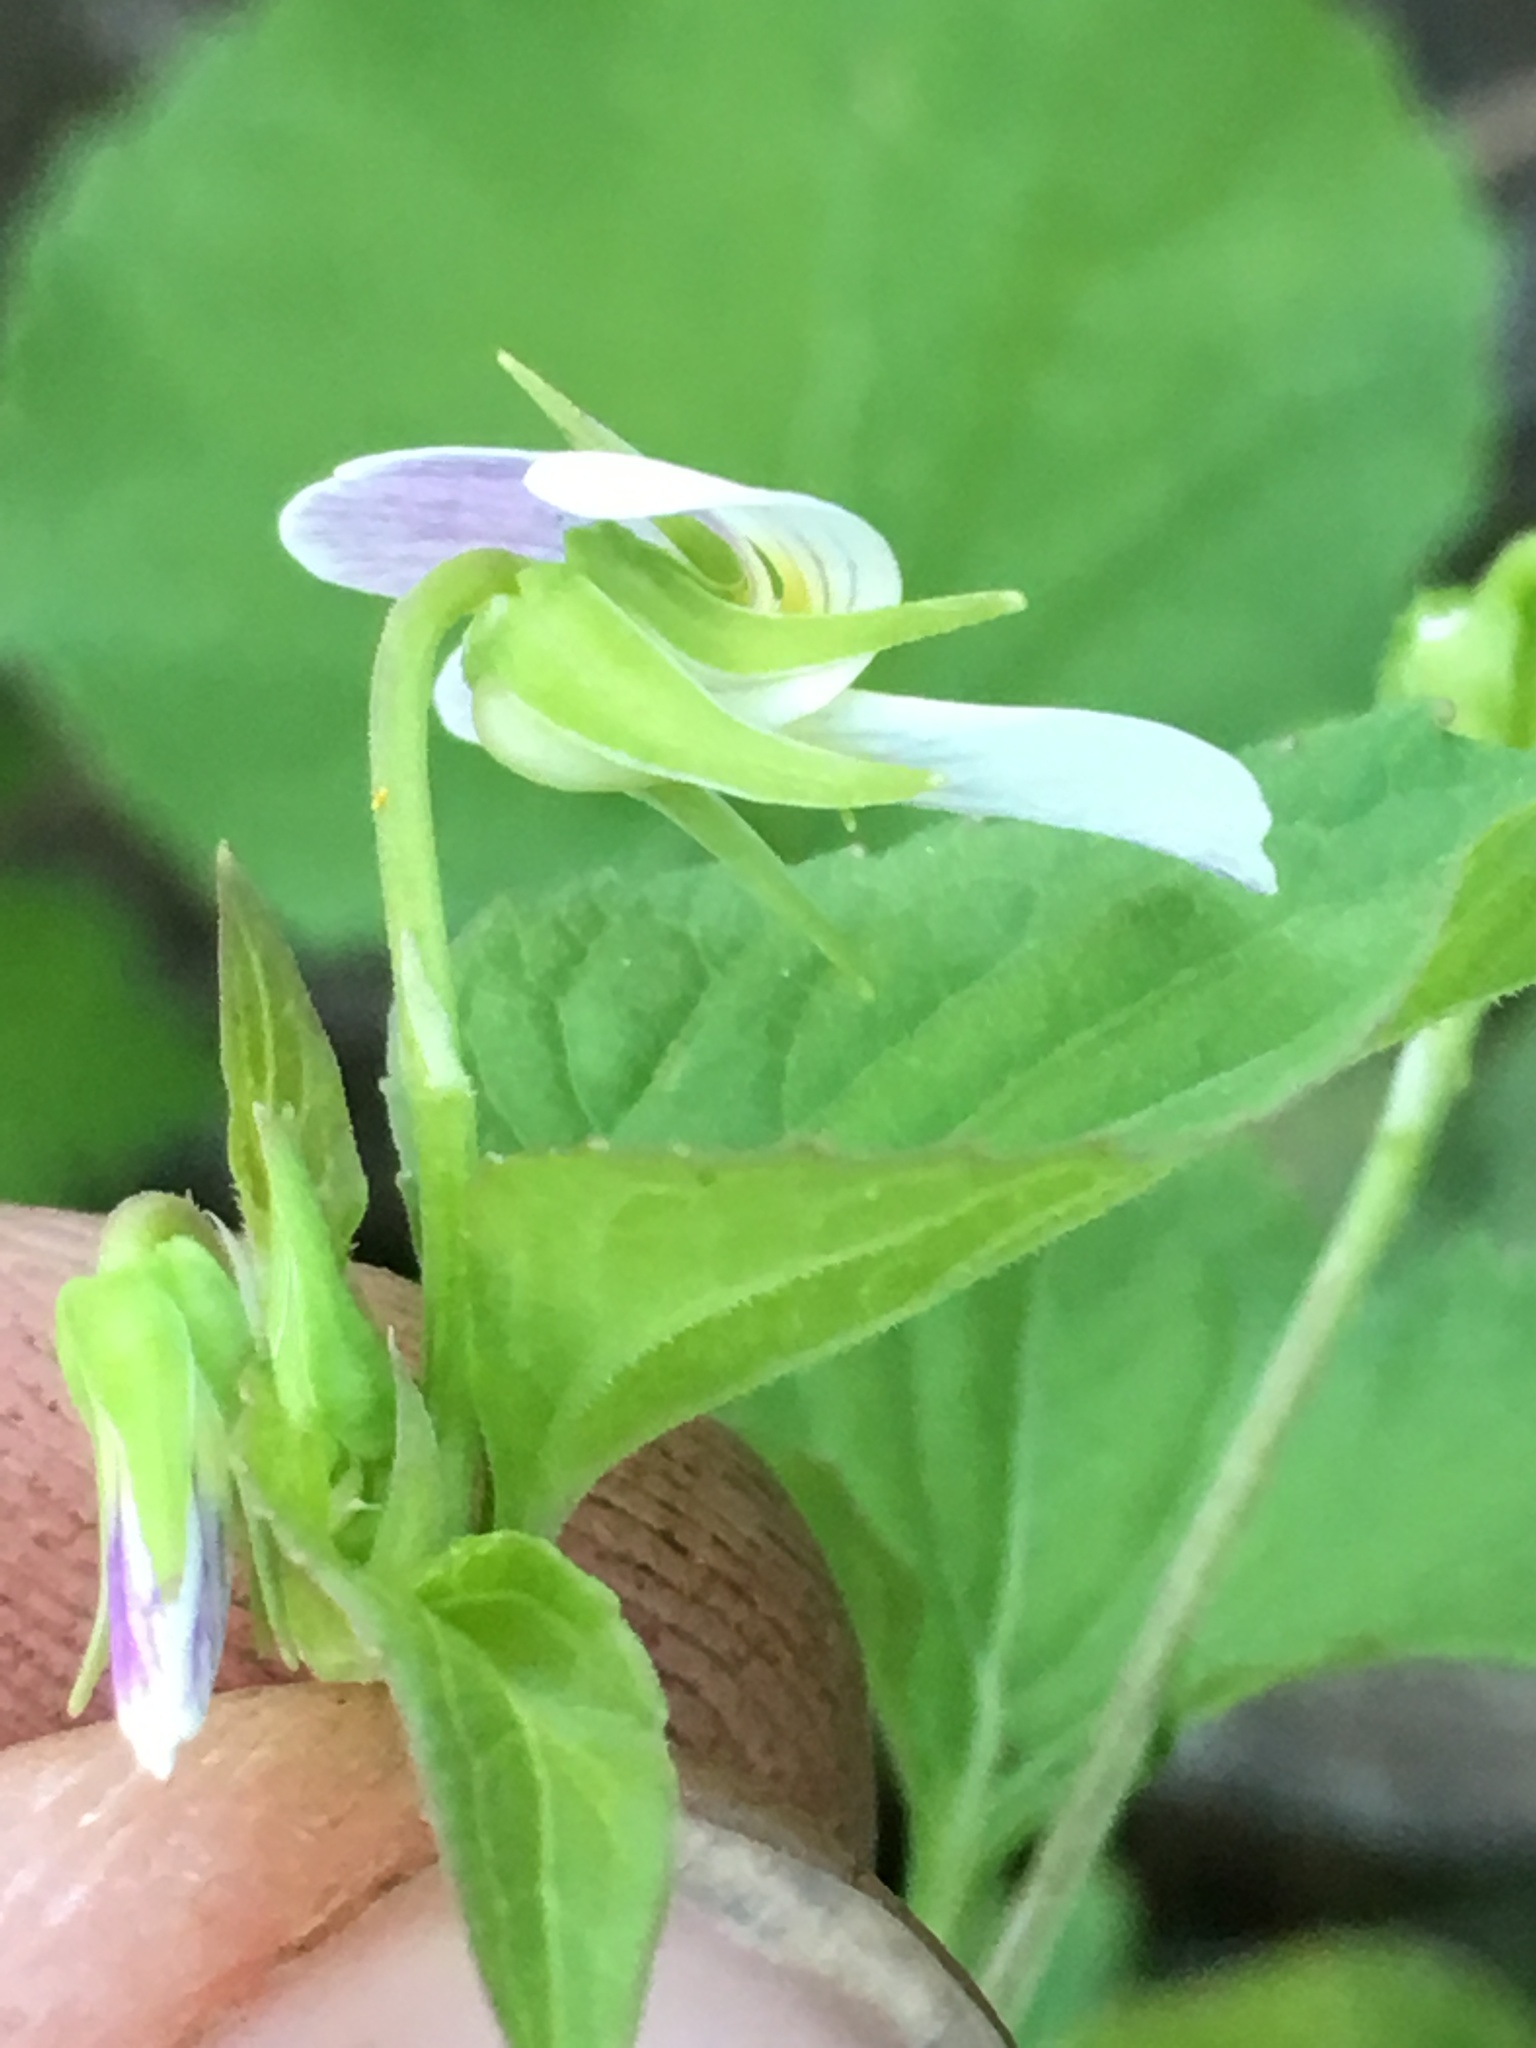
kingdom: Plantae
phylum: Tracheophyta
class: Magnoliopsida
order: Malpighiales
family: Violaceae
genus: Viola
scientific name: Viola canadensis
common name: Canada violet
